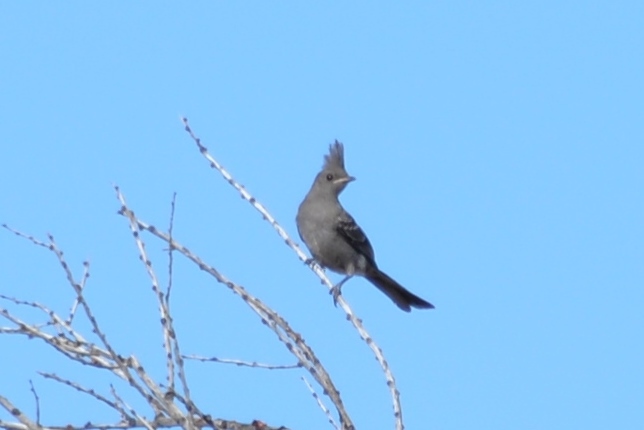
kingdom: Animalia
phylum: Chordata
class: Aves
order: Passeriformes
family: Ptilogonatidae
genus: Phainopepla
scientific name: Phainopepla nitens
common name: Phainopepla
